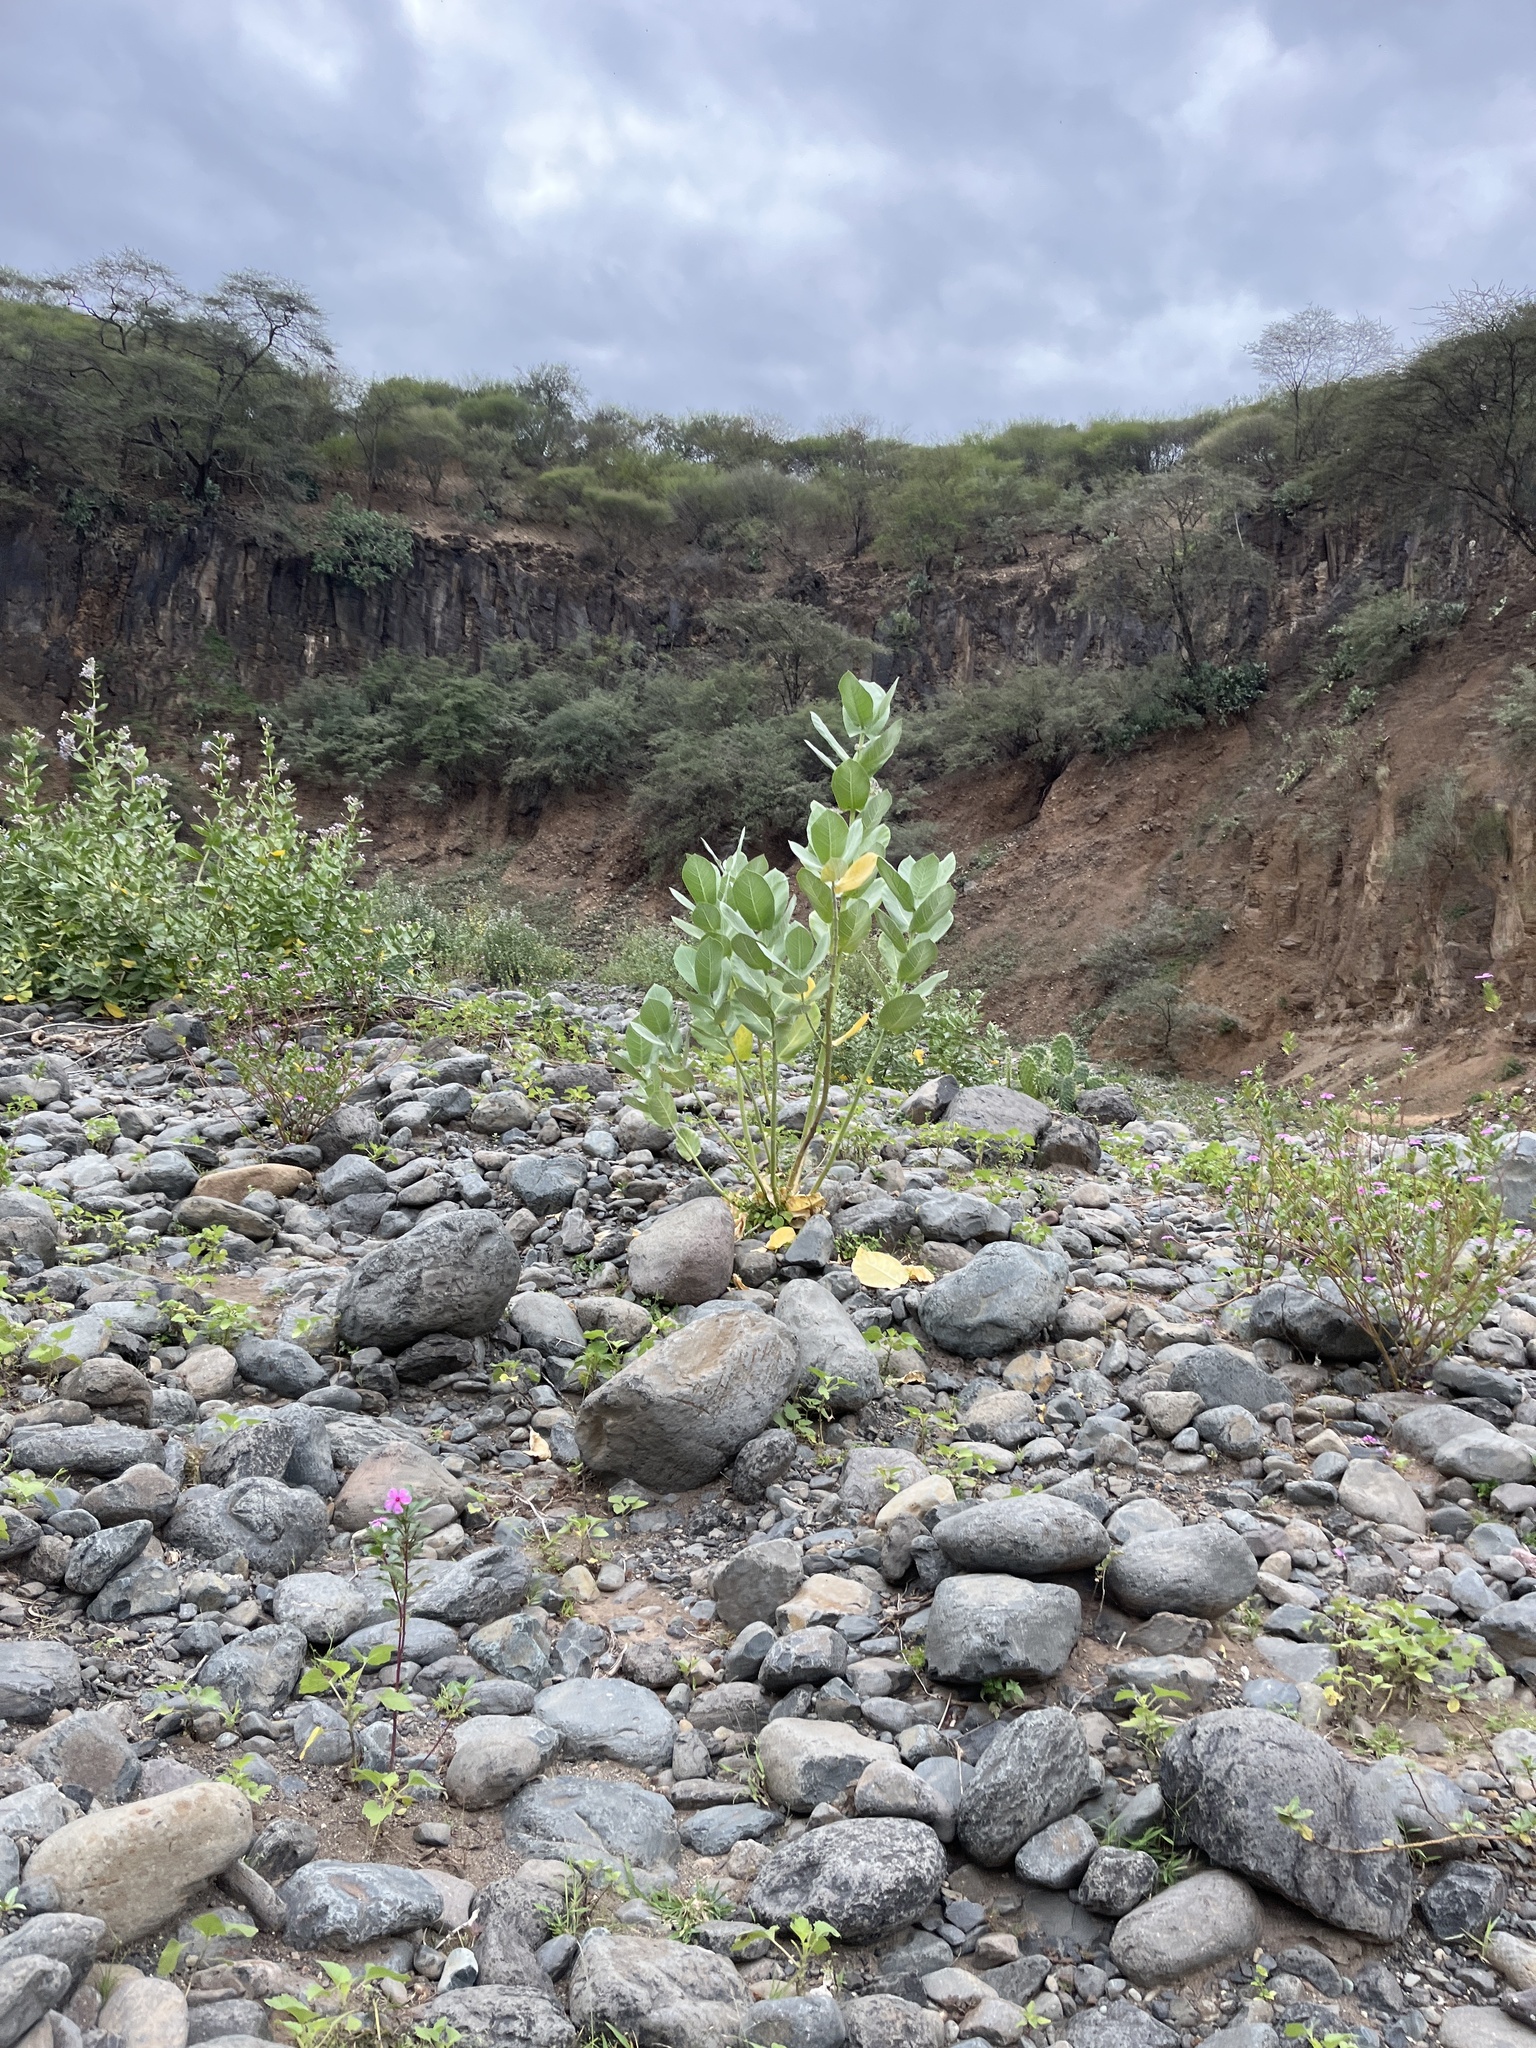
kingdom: Plantae
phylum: Tracheophyta
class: Magnoliopsida
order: Gentianales
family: Apocynaceae
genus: Calotropis
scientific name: Calotropis gigantea
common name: Crown flower
